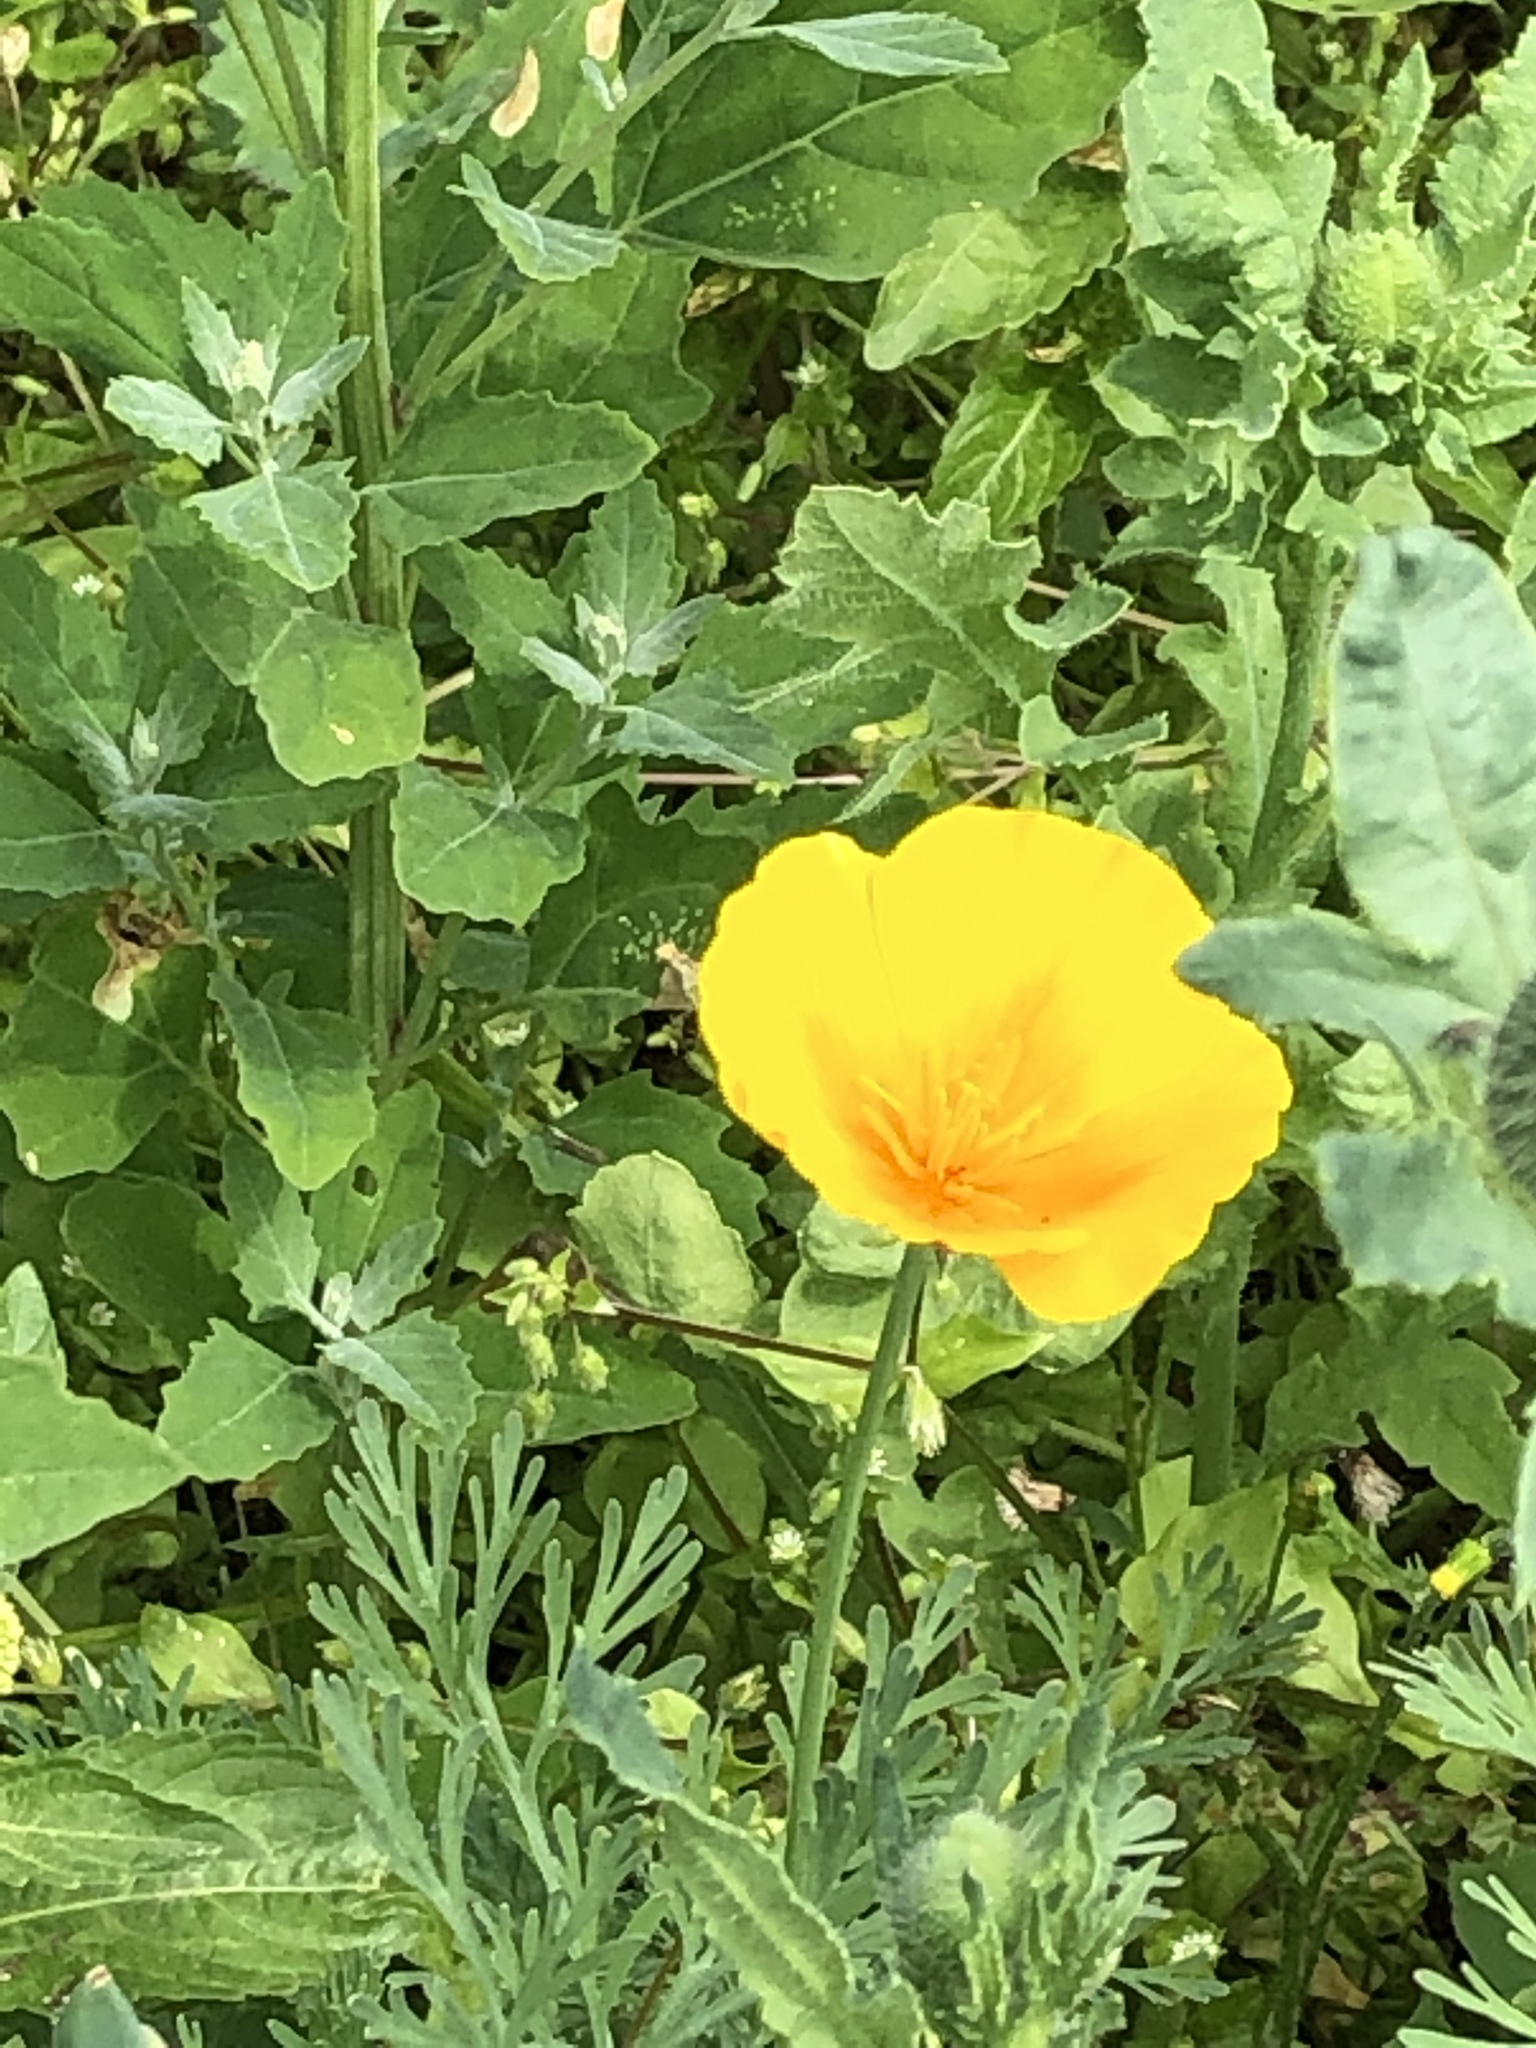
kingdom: Plantae
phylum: Tracheophyta
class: Magnoliopsida
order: Ranunculales
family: Papaveraceae
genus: Eschscholzia
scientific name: Eschscholzia californica
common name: California poppy
